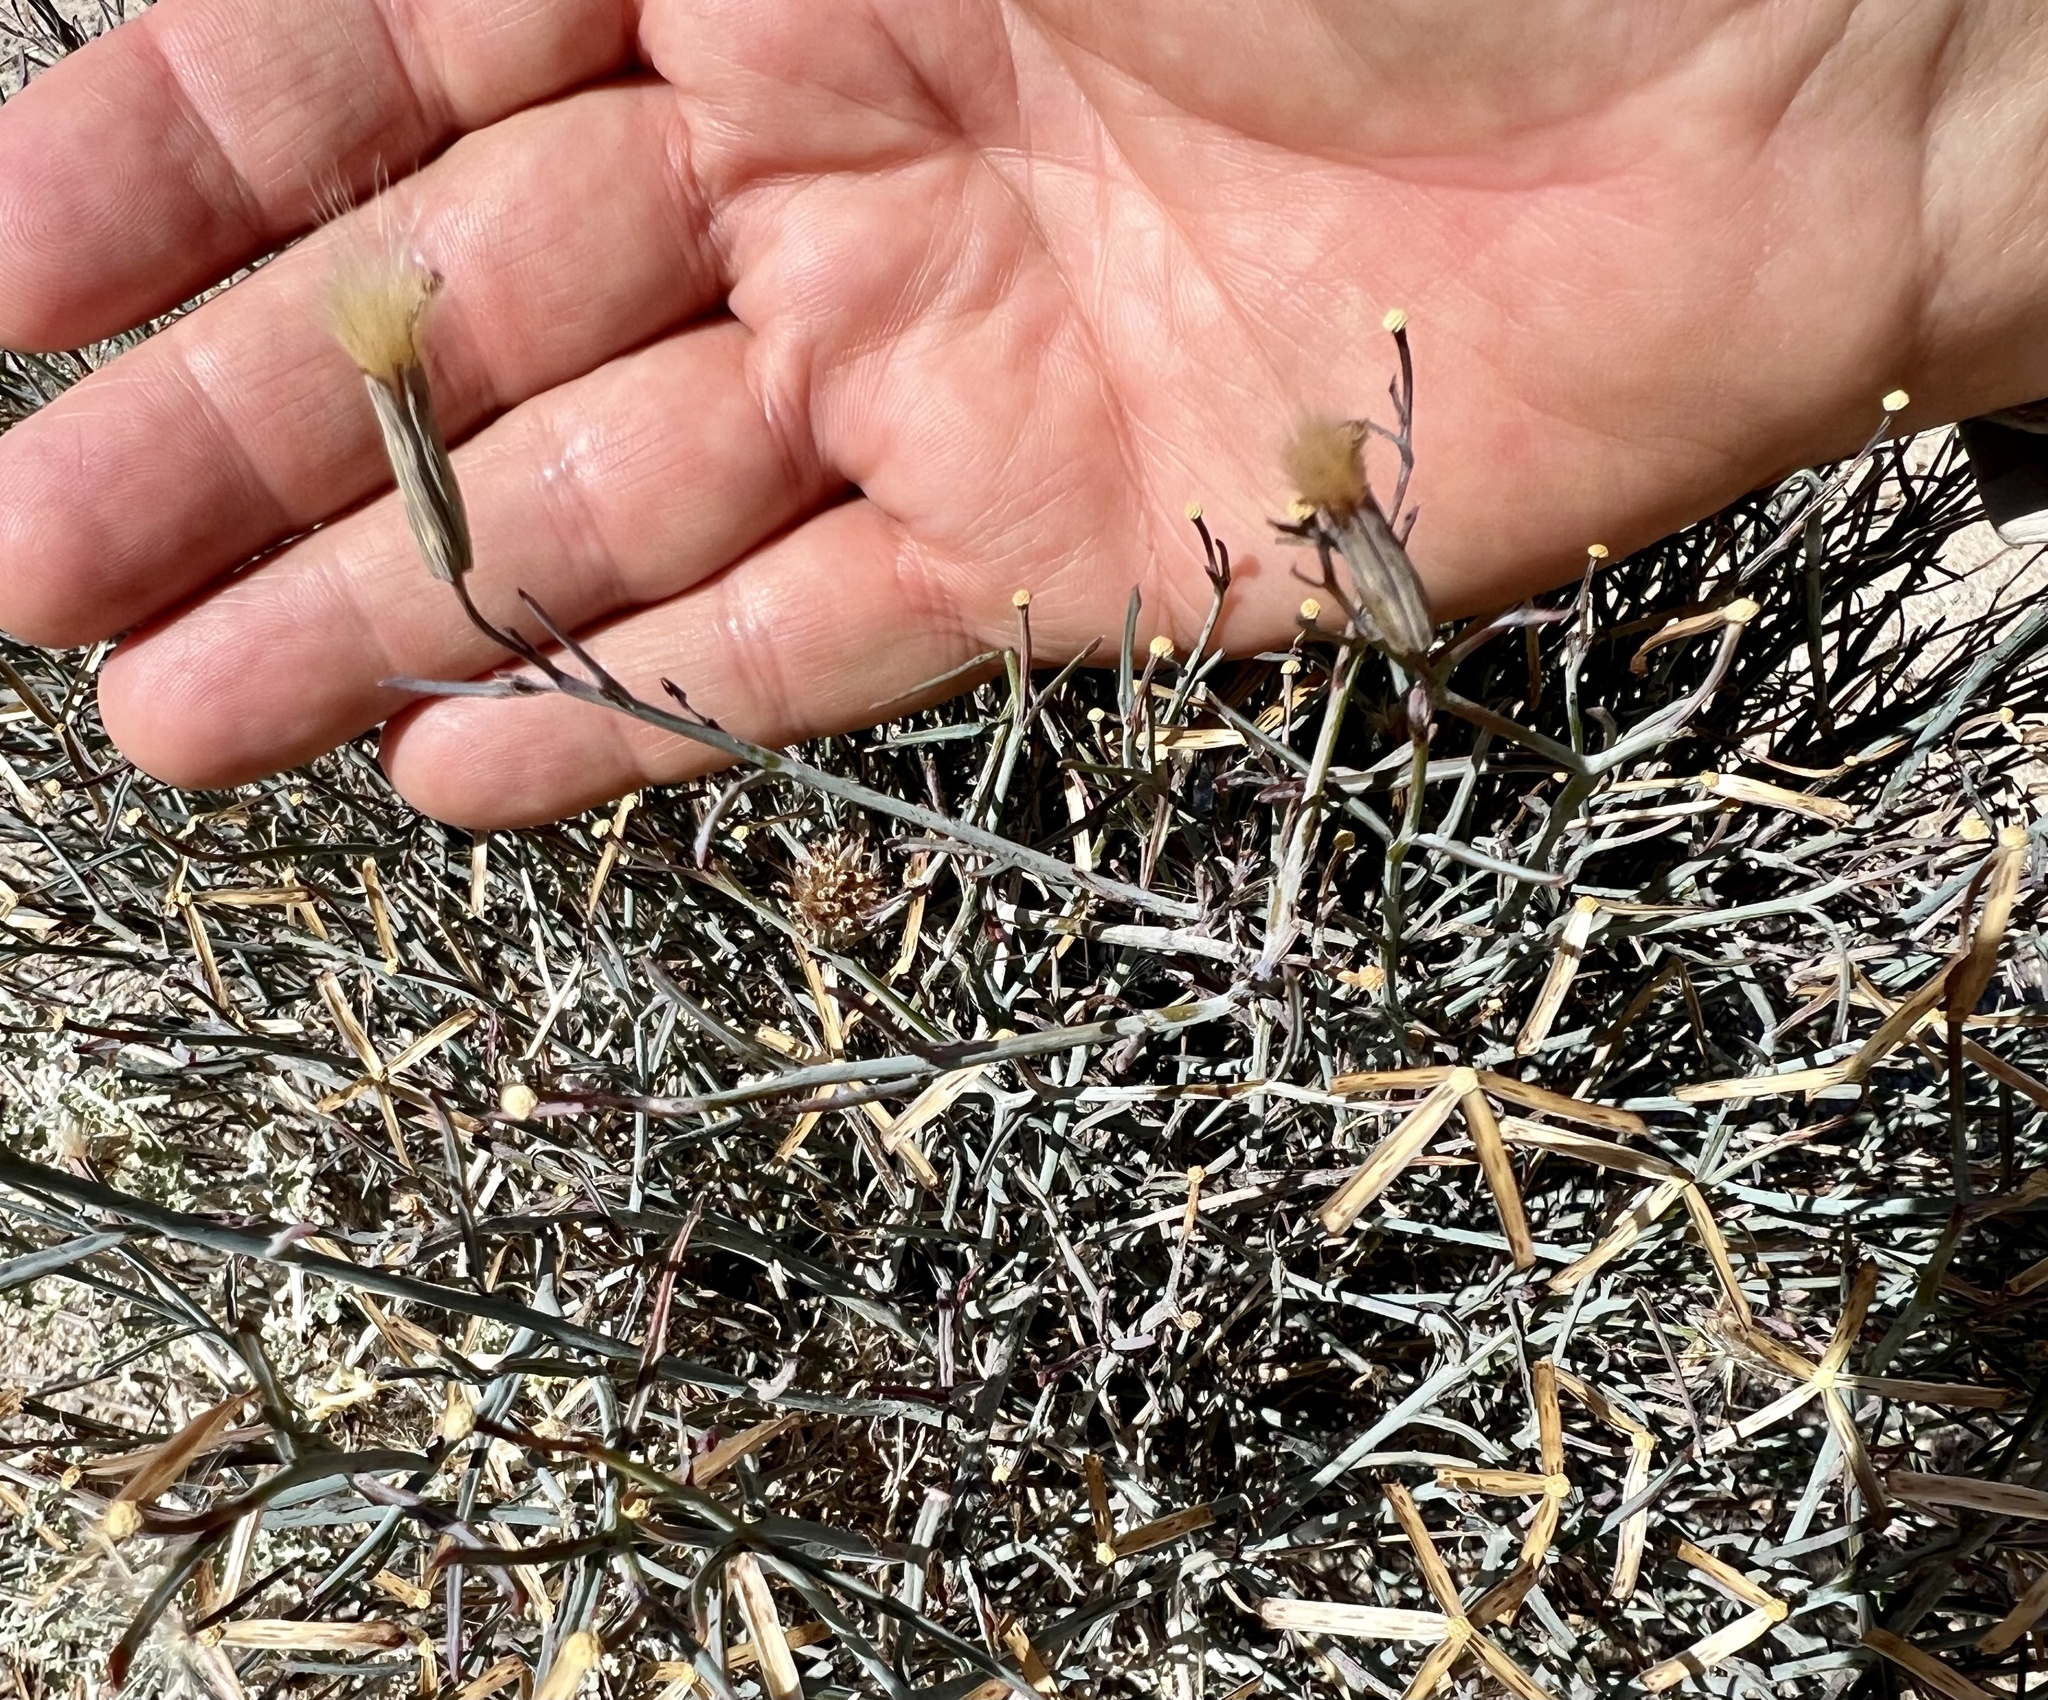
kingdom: Plantae
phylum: Tracheophyta
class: Magnoliopsida
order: Asterales
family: Asteraceae
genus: Porophyllum
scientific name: Porophyllum gracile
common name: Odora
